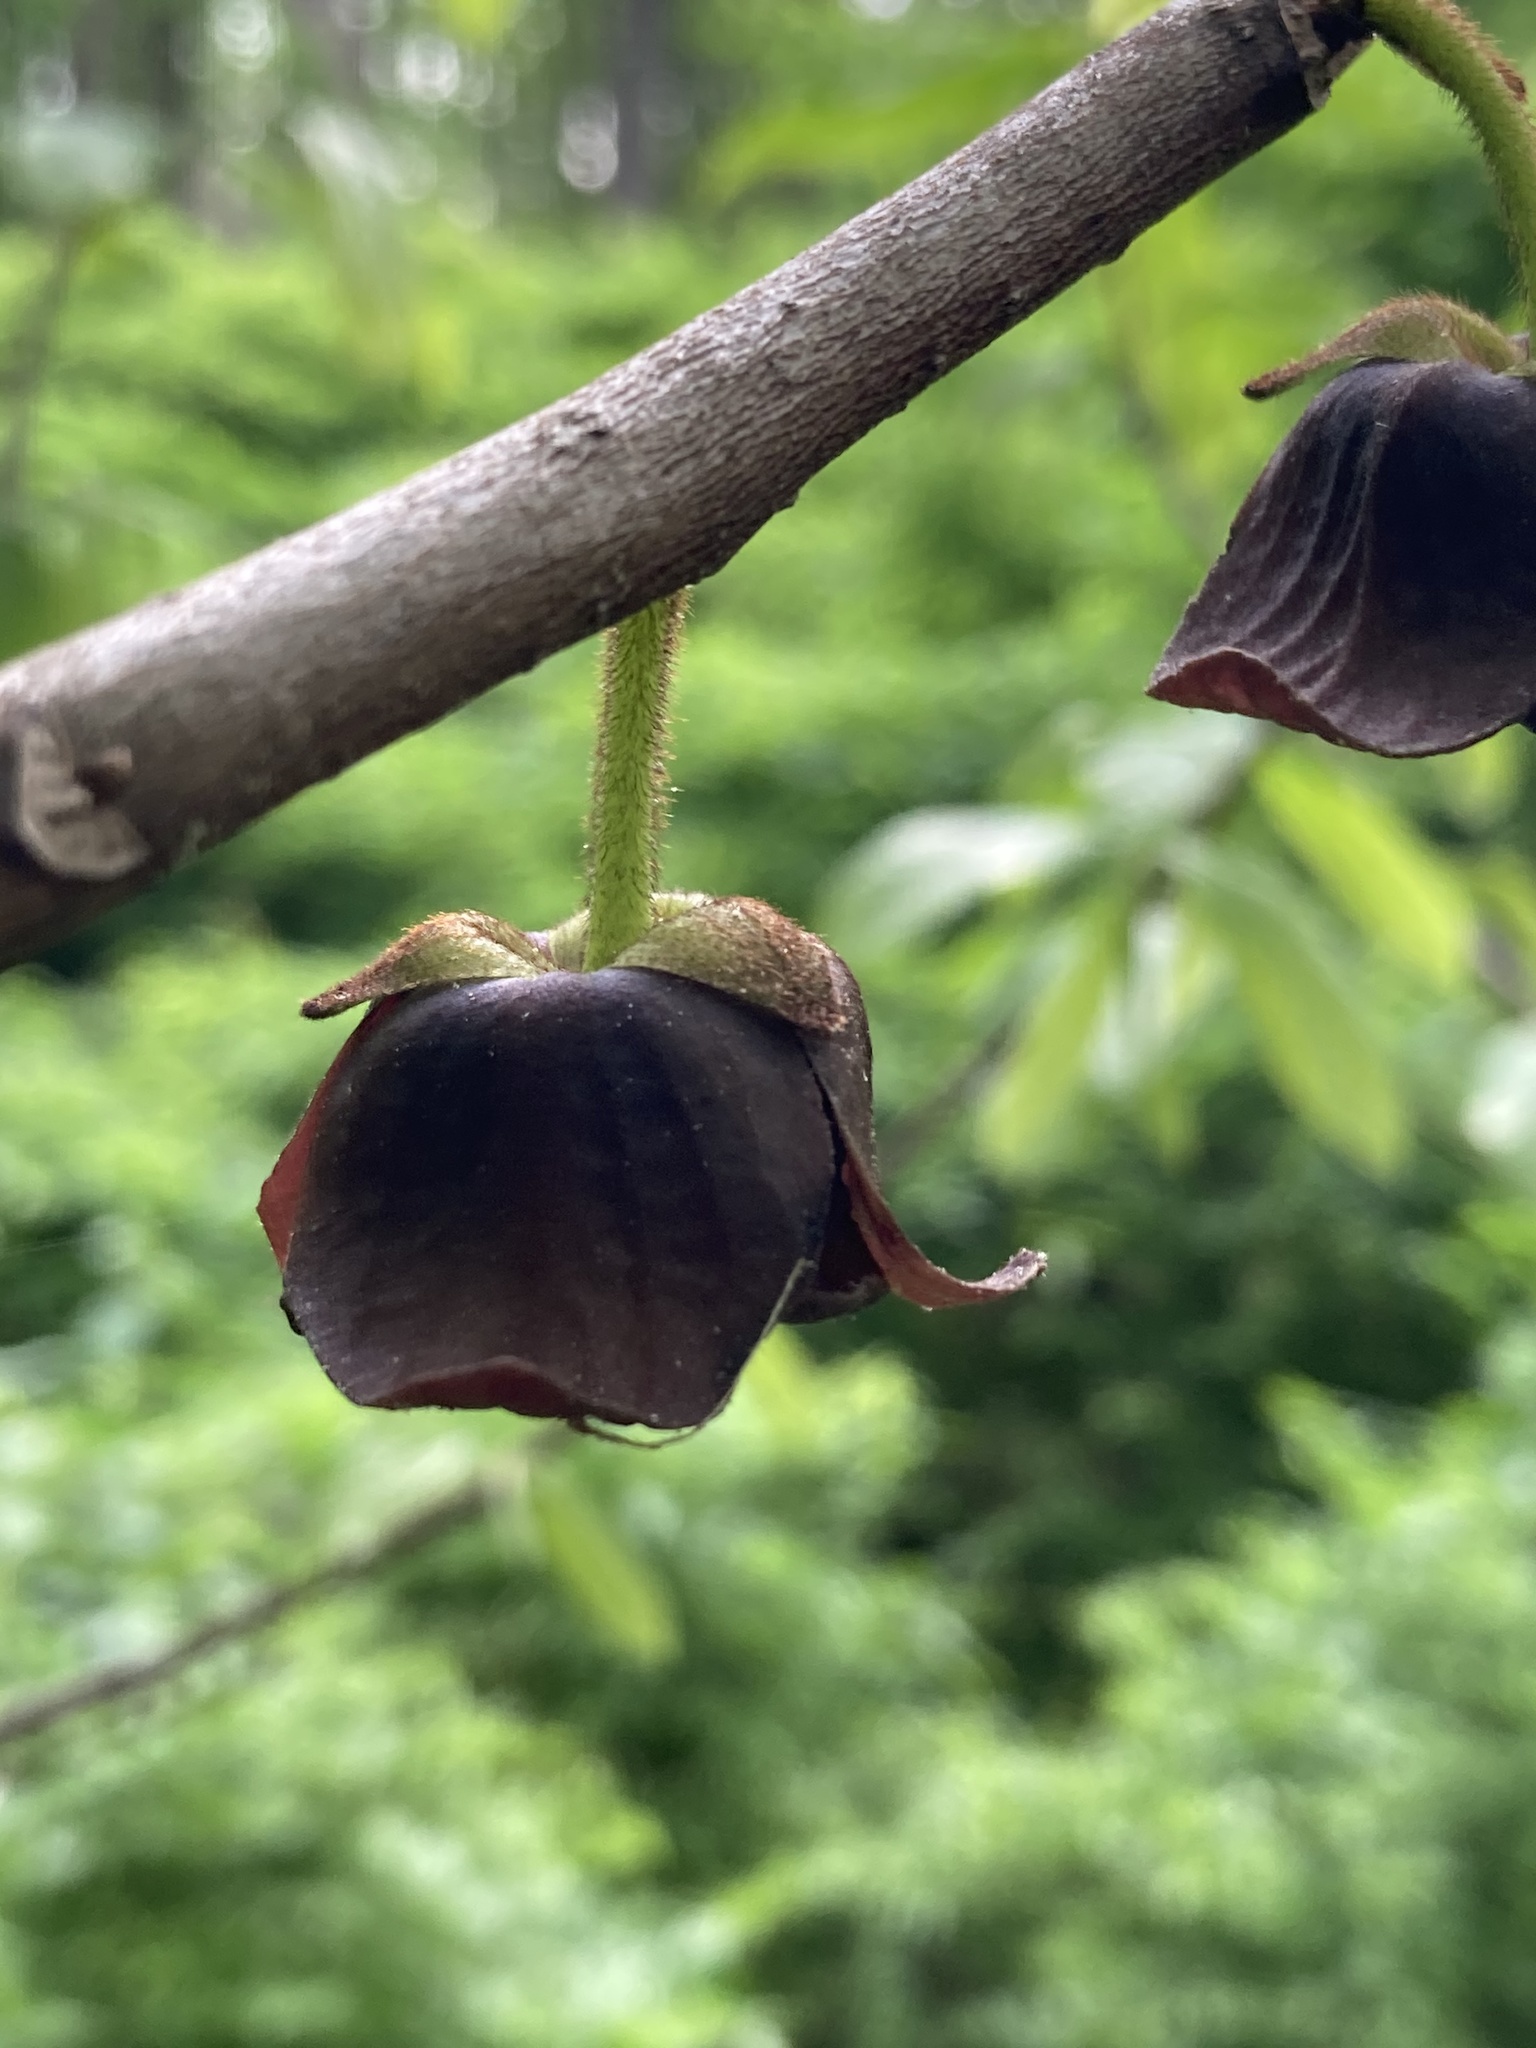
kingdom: Plantae
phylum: Tracheophyta
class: Magnoliopsida
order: Magnoliales
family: Annonaceae
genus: Asimina
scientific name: Asimina triloba
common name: Dog-banana
